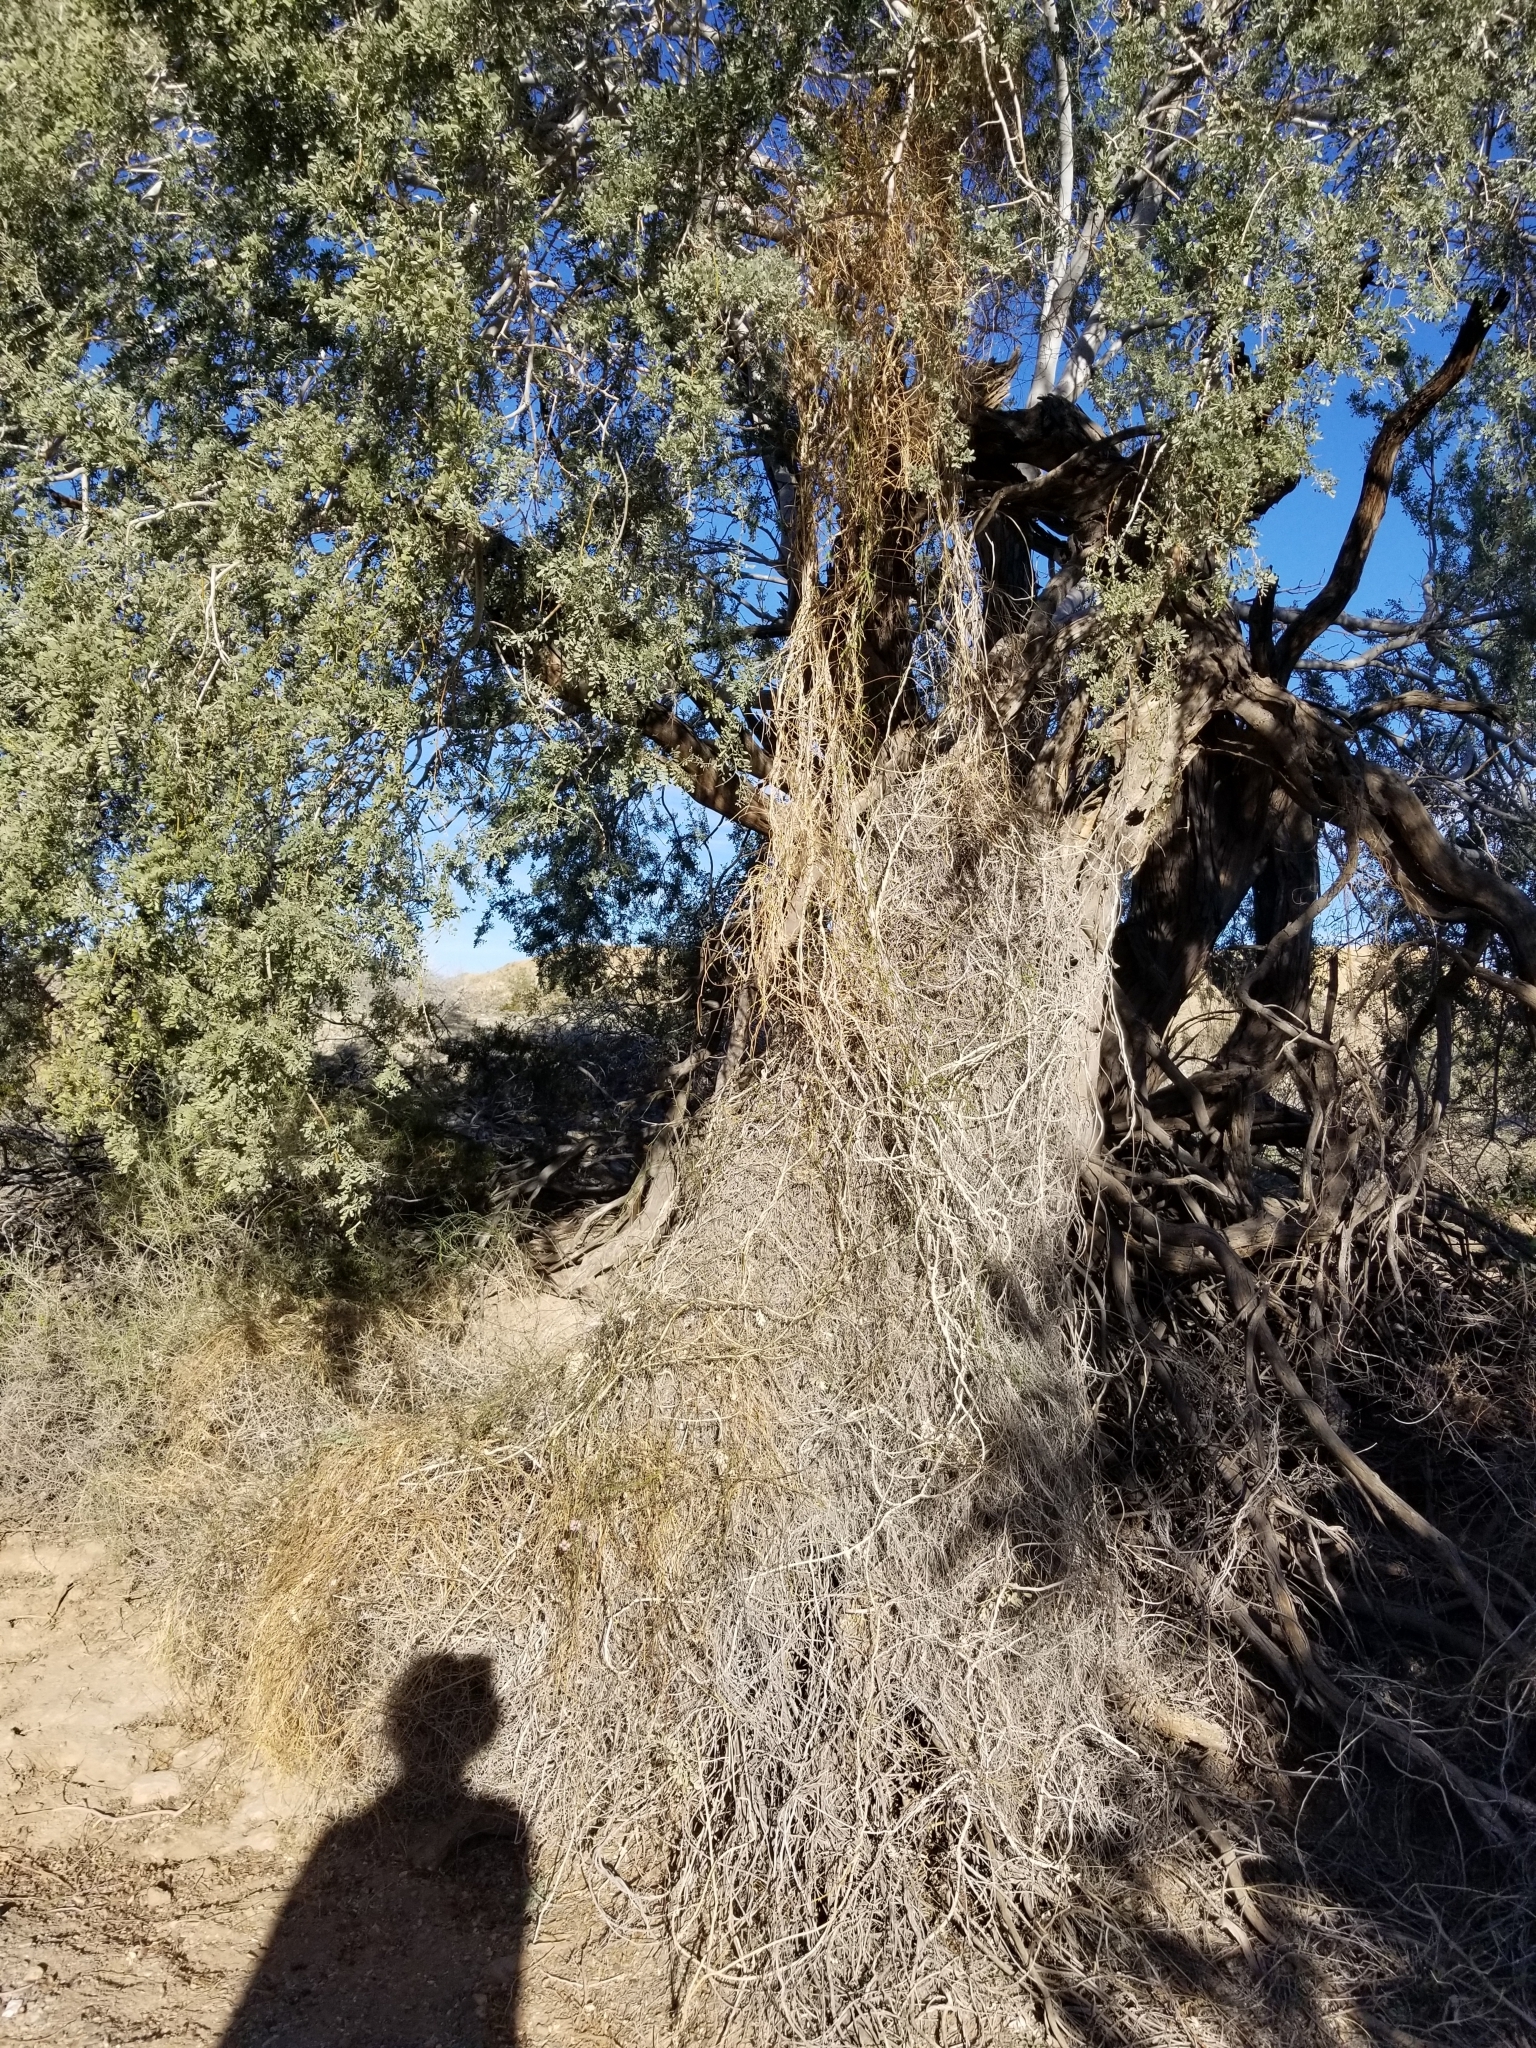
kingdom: Plantae
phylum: Tracheophyta
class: Magnoliopsida
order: Gentianales
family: Apocynaceae
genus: Funastrum
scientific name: Funastrum heterophyllum
